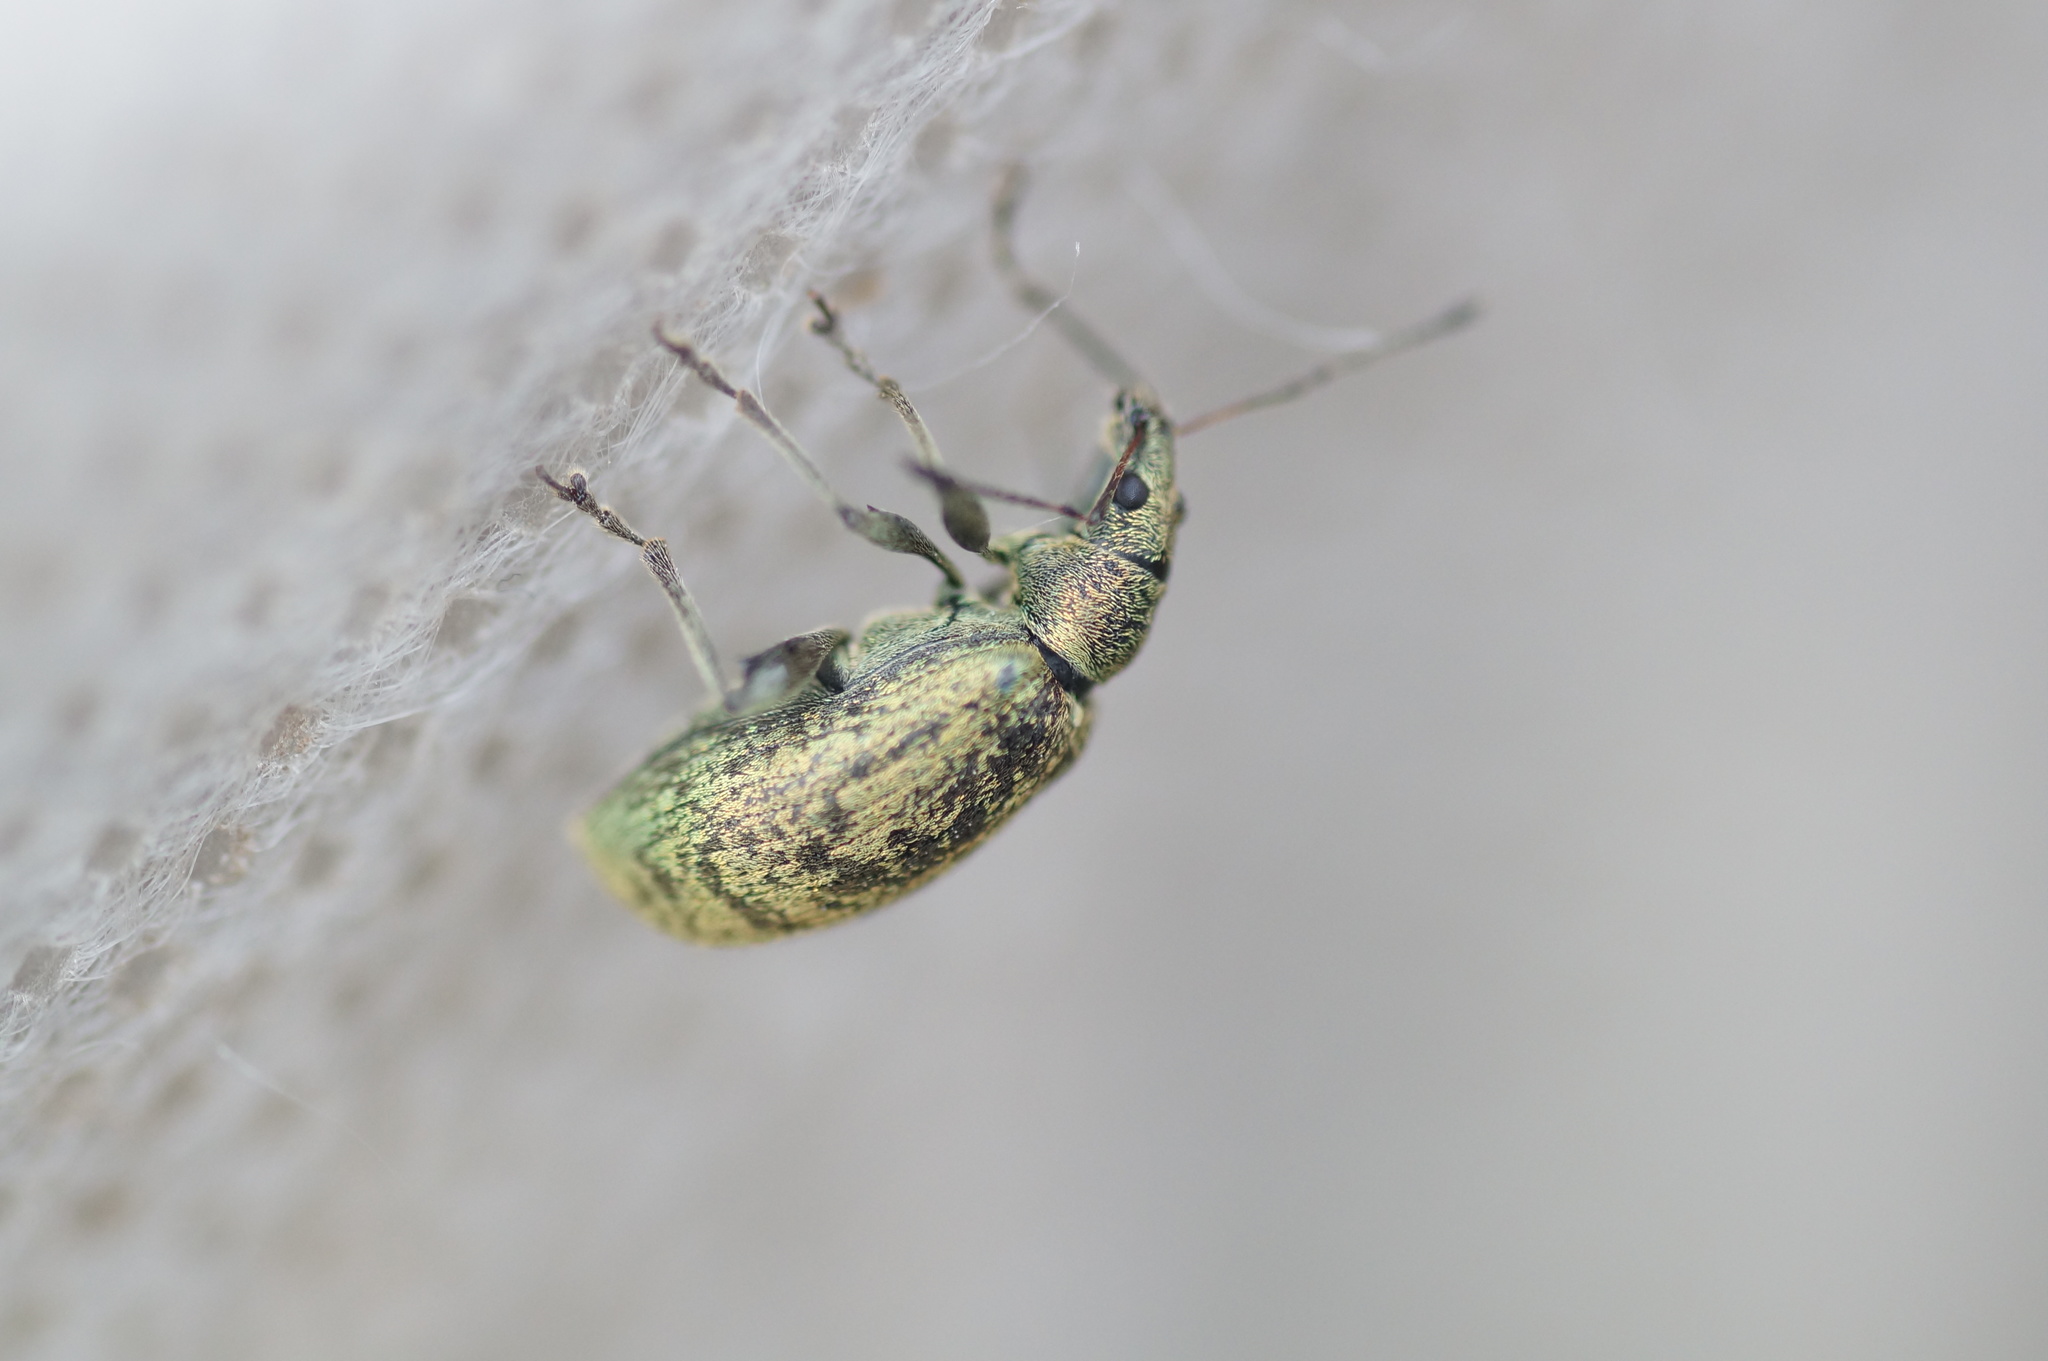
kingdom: Animalia
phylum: Arthropoda
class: Insecta
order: Coleoptera
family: Curculionidae
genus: Phyllobius
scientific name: Phyllobius pomaceus
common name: Green nettle weevil
